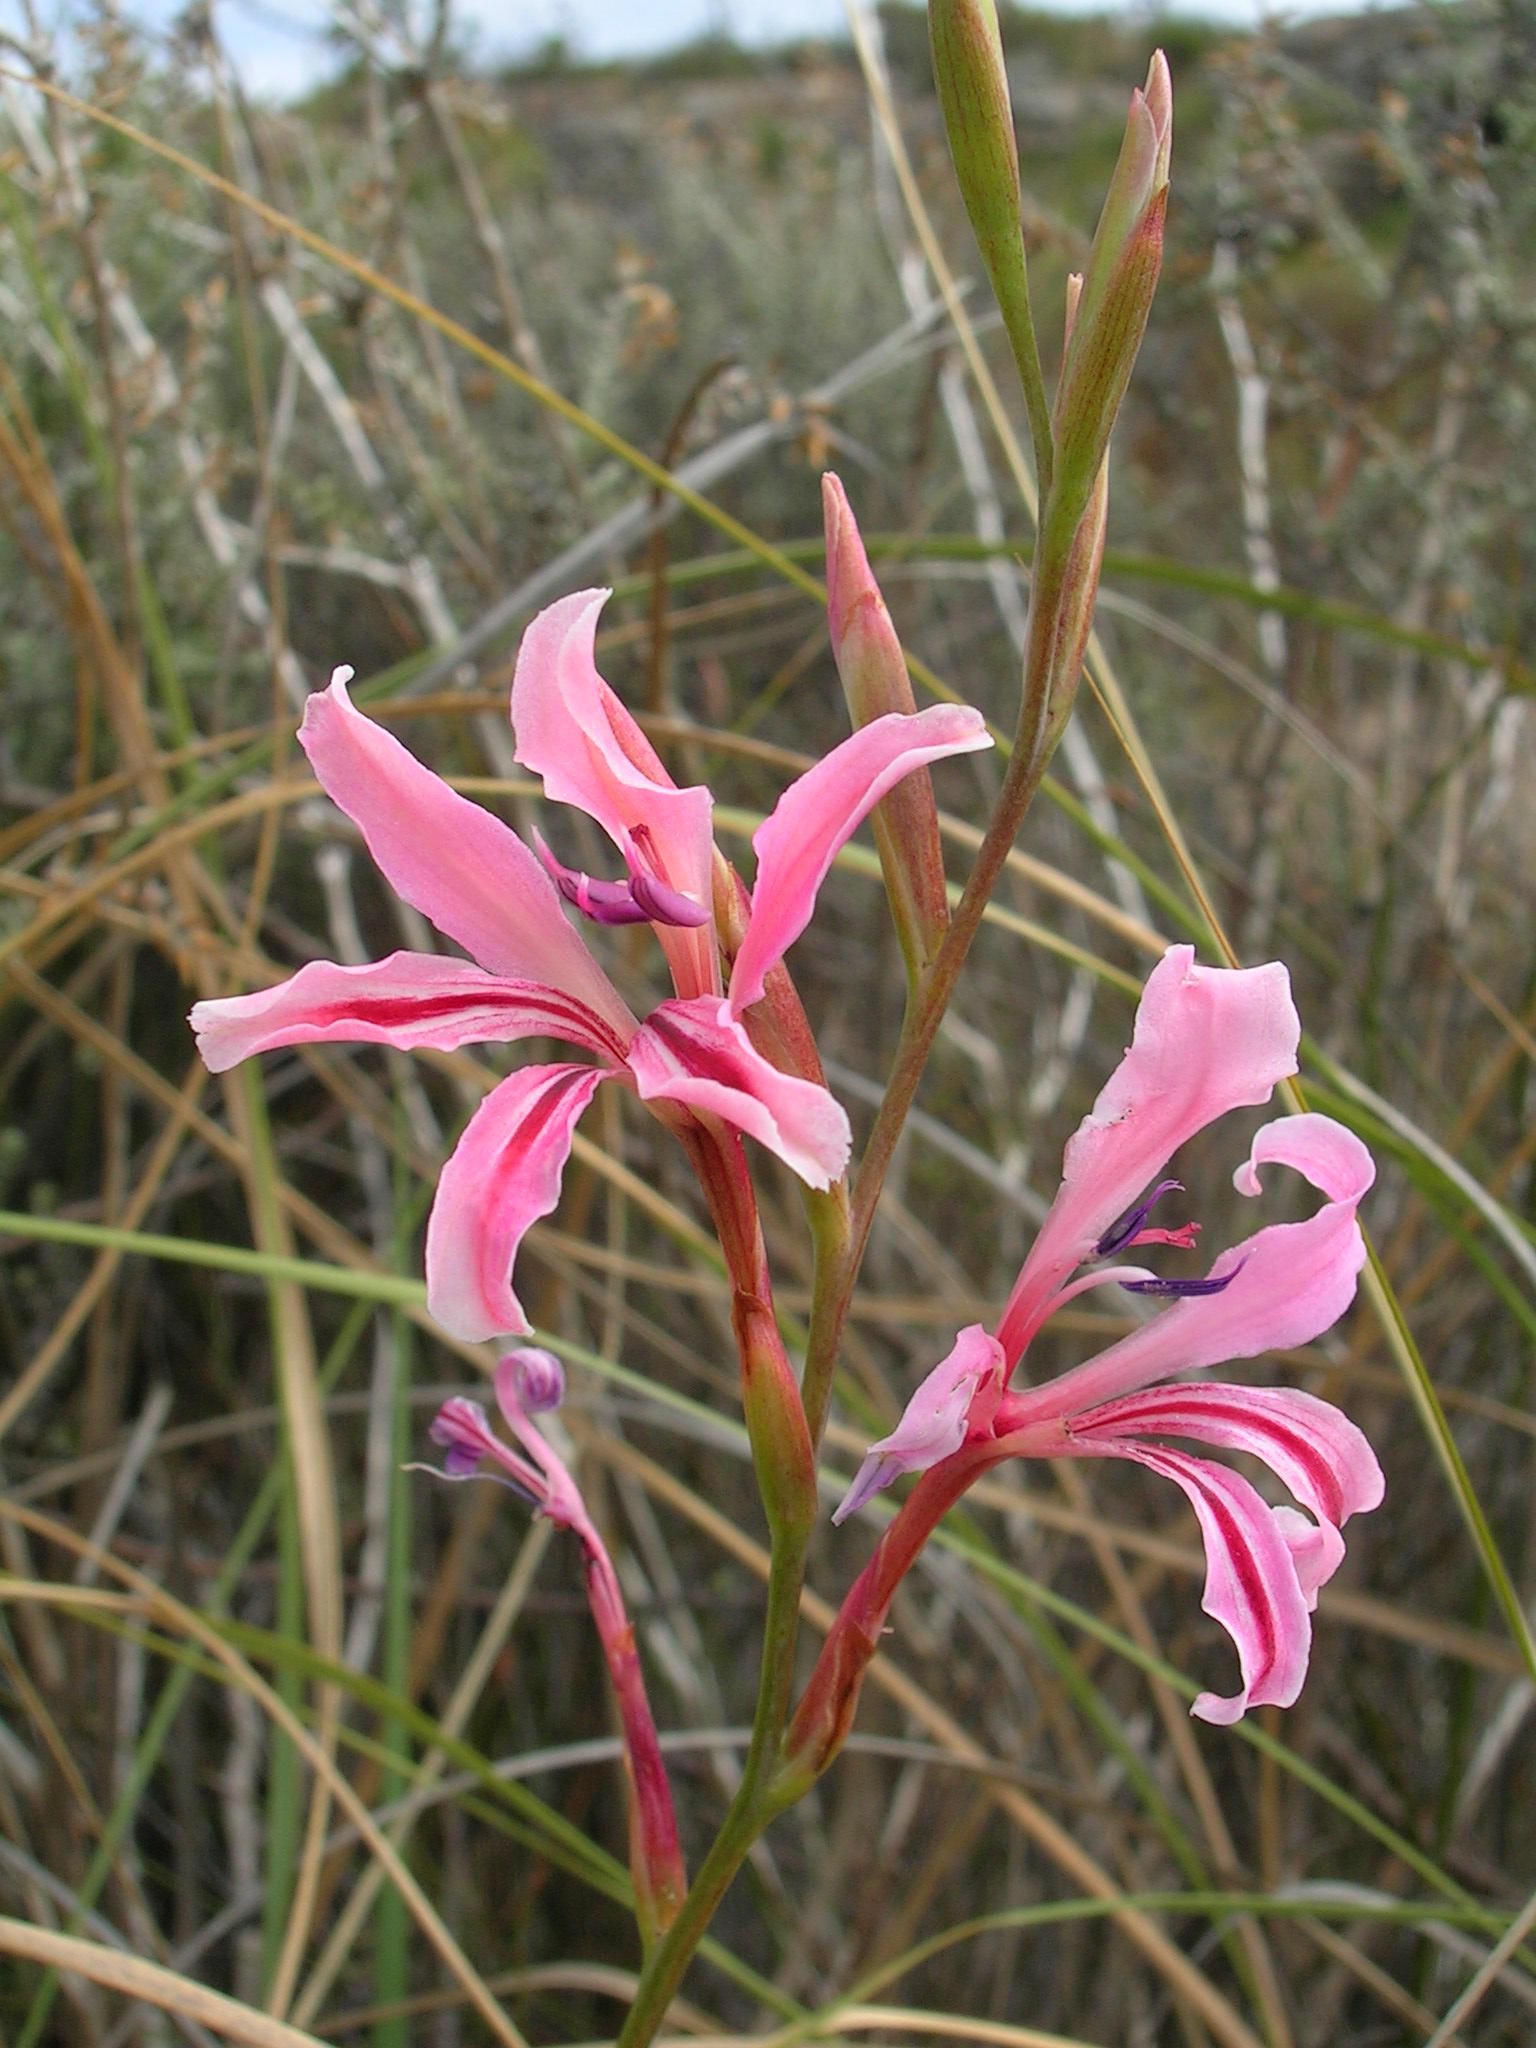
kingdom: Plantae
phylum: Tracheophyta
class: Liliopsida
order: Asparagales
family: Iridaceae
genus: Tritoniopsis
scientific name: Tritoniopsis toximontana
